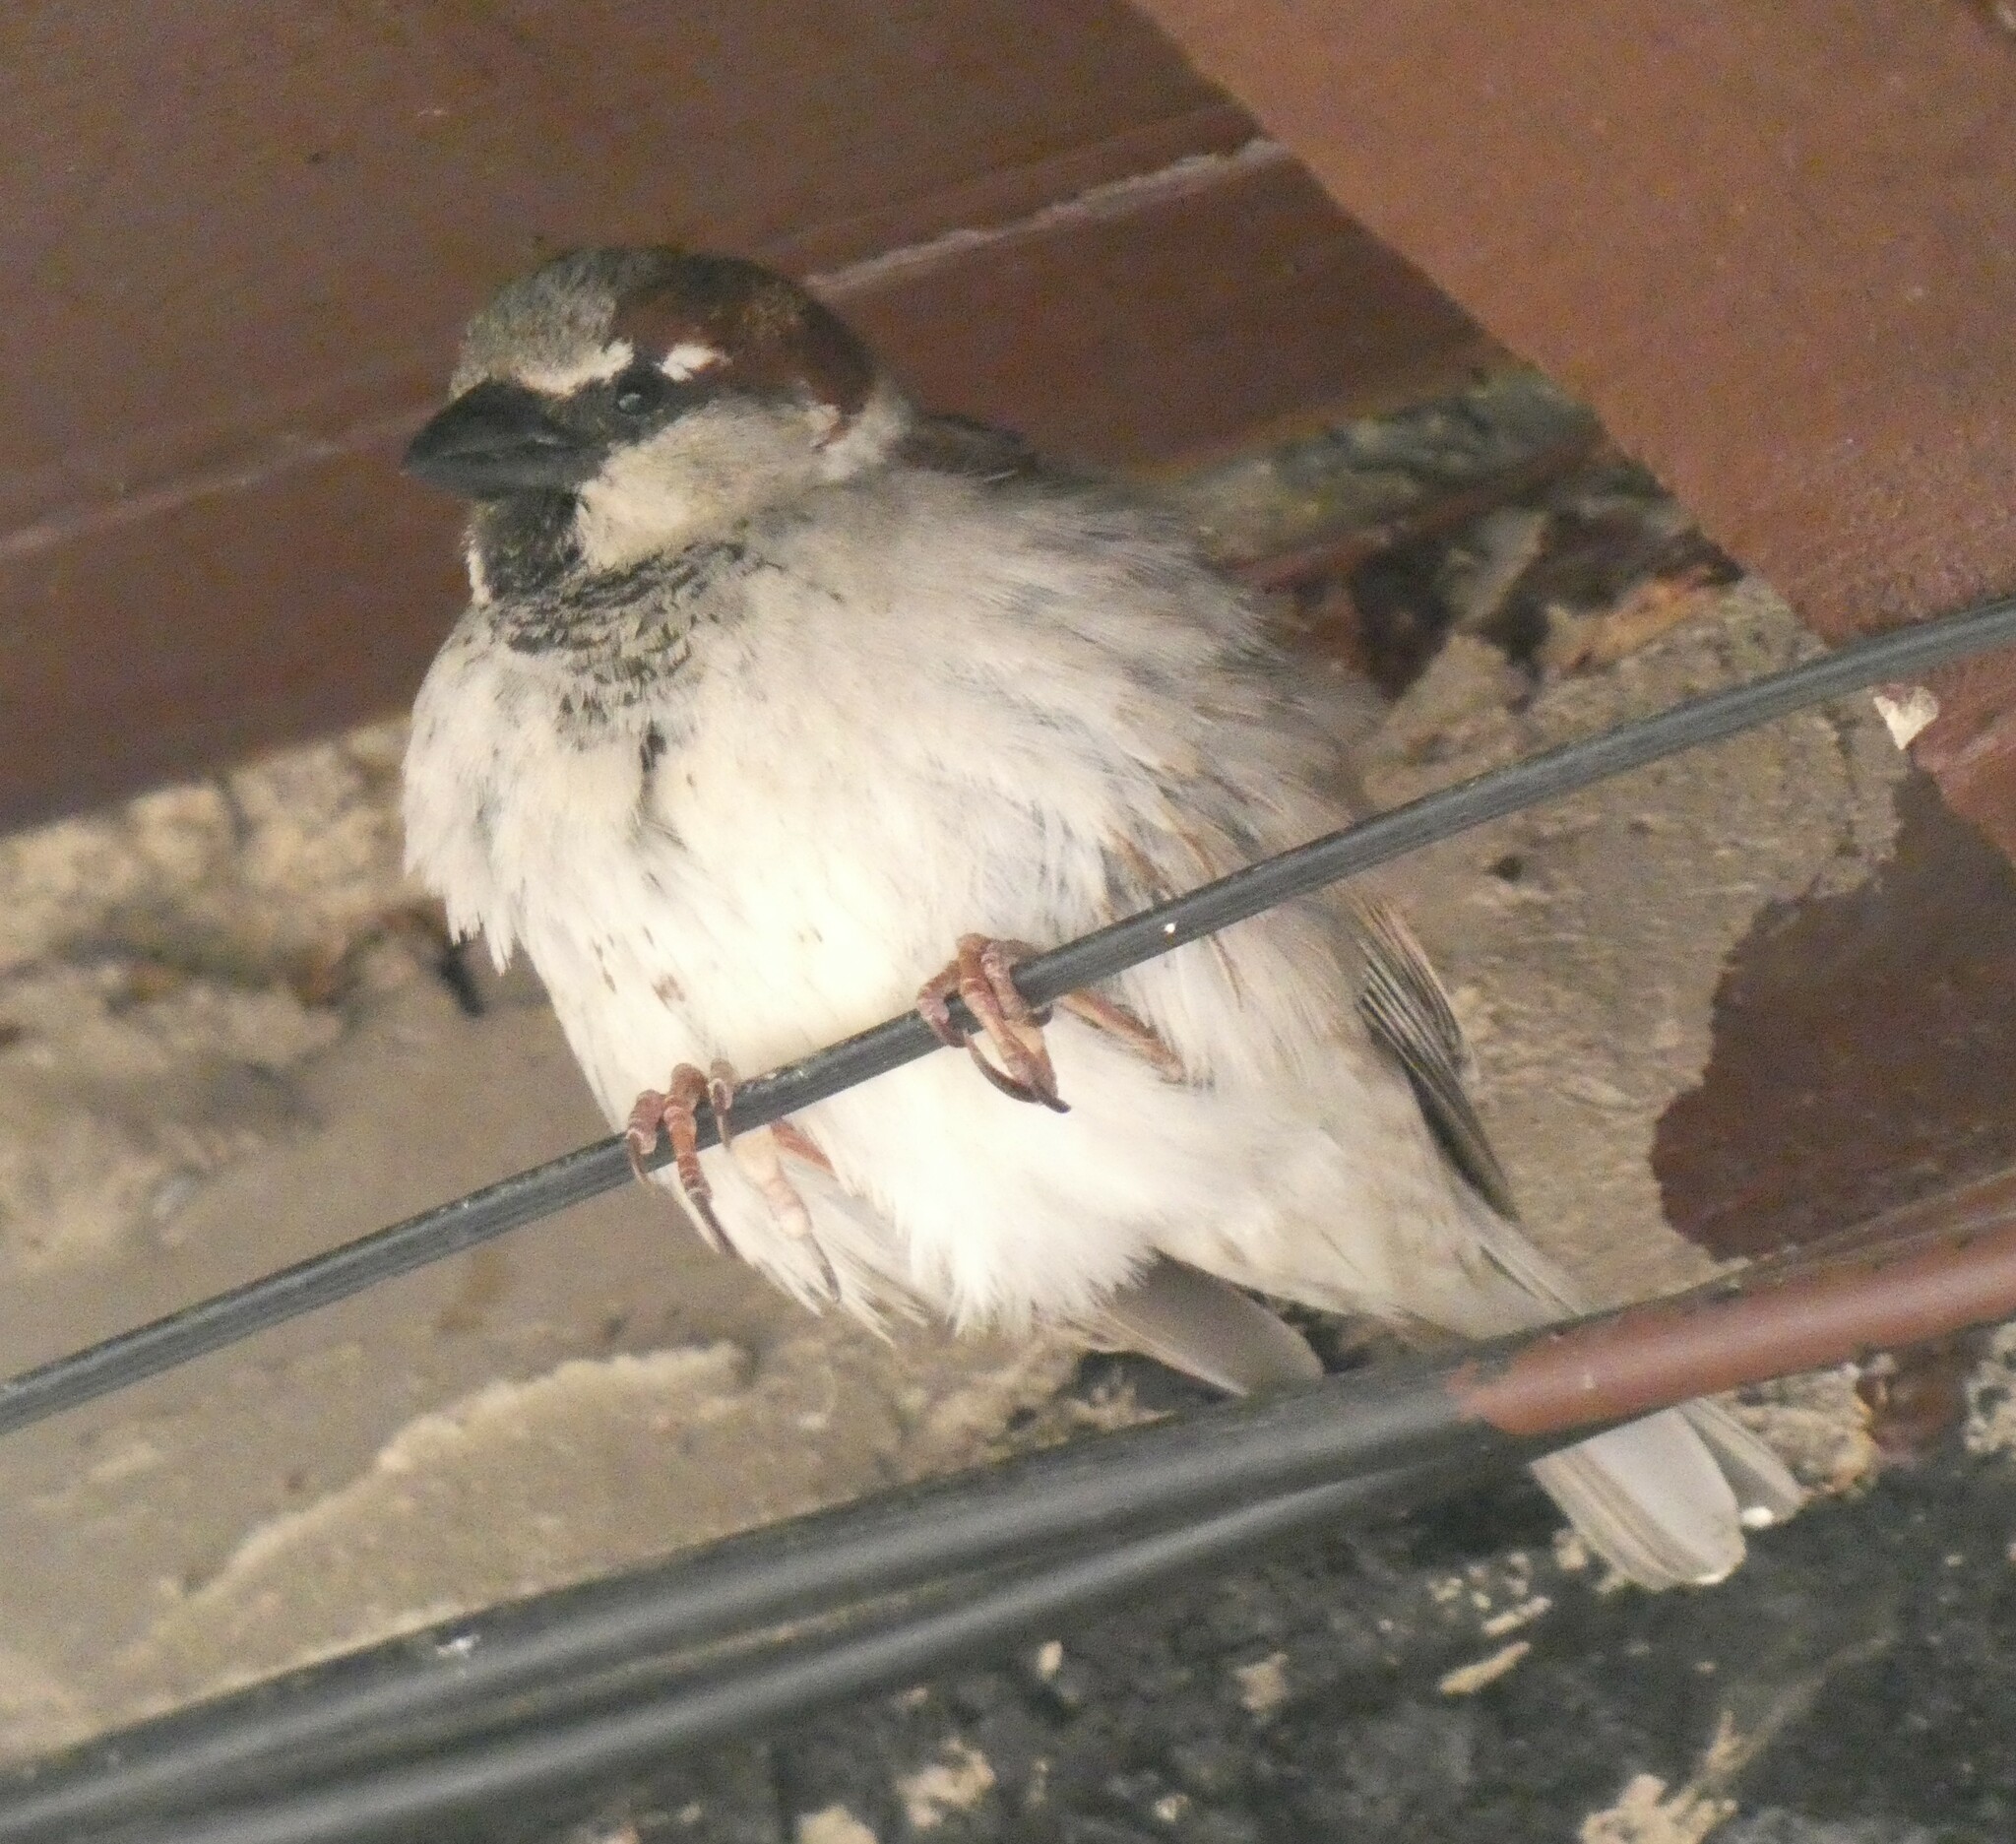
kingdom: Animalia
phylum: Chordata
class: Aves
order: Passeriformes
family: Passeridae
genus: Passer
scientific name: Passer domesticus
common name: House sparrow
